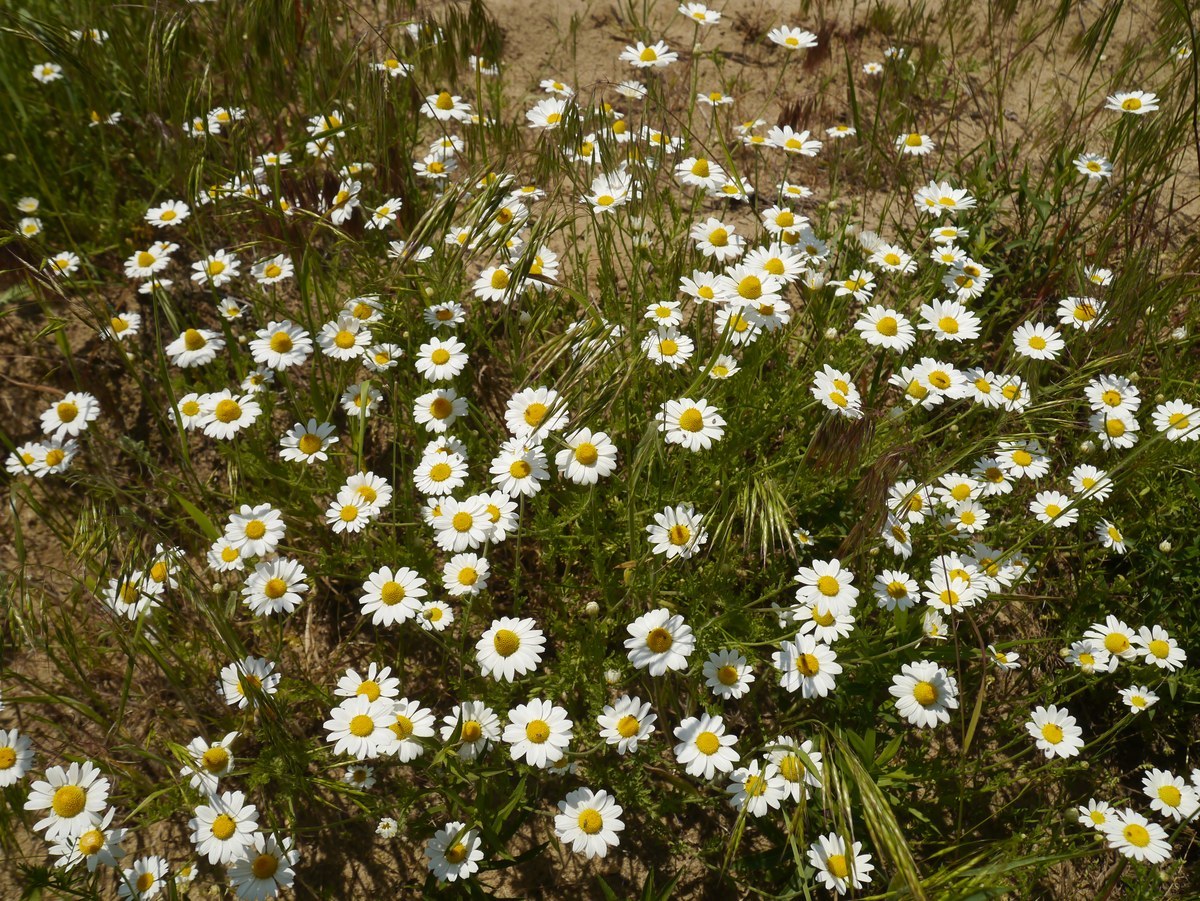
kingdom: Plantae
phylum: Tracheophyta
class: Magnoliopsida
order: Asterales
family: Asteraceae
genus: Anthemis
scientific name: Anthemis ruthenica
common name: Eastern chamomile
